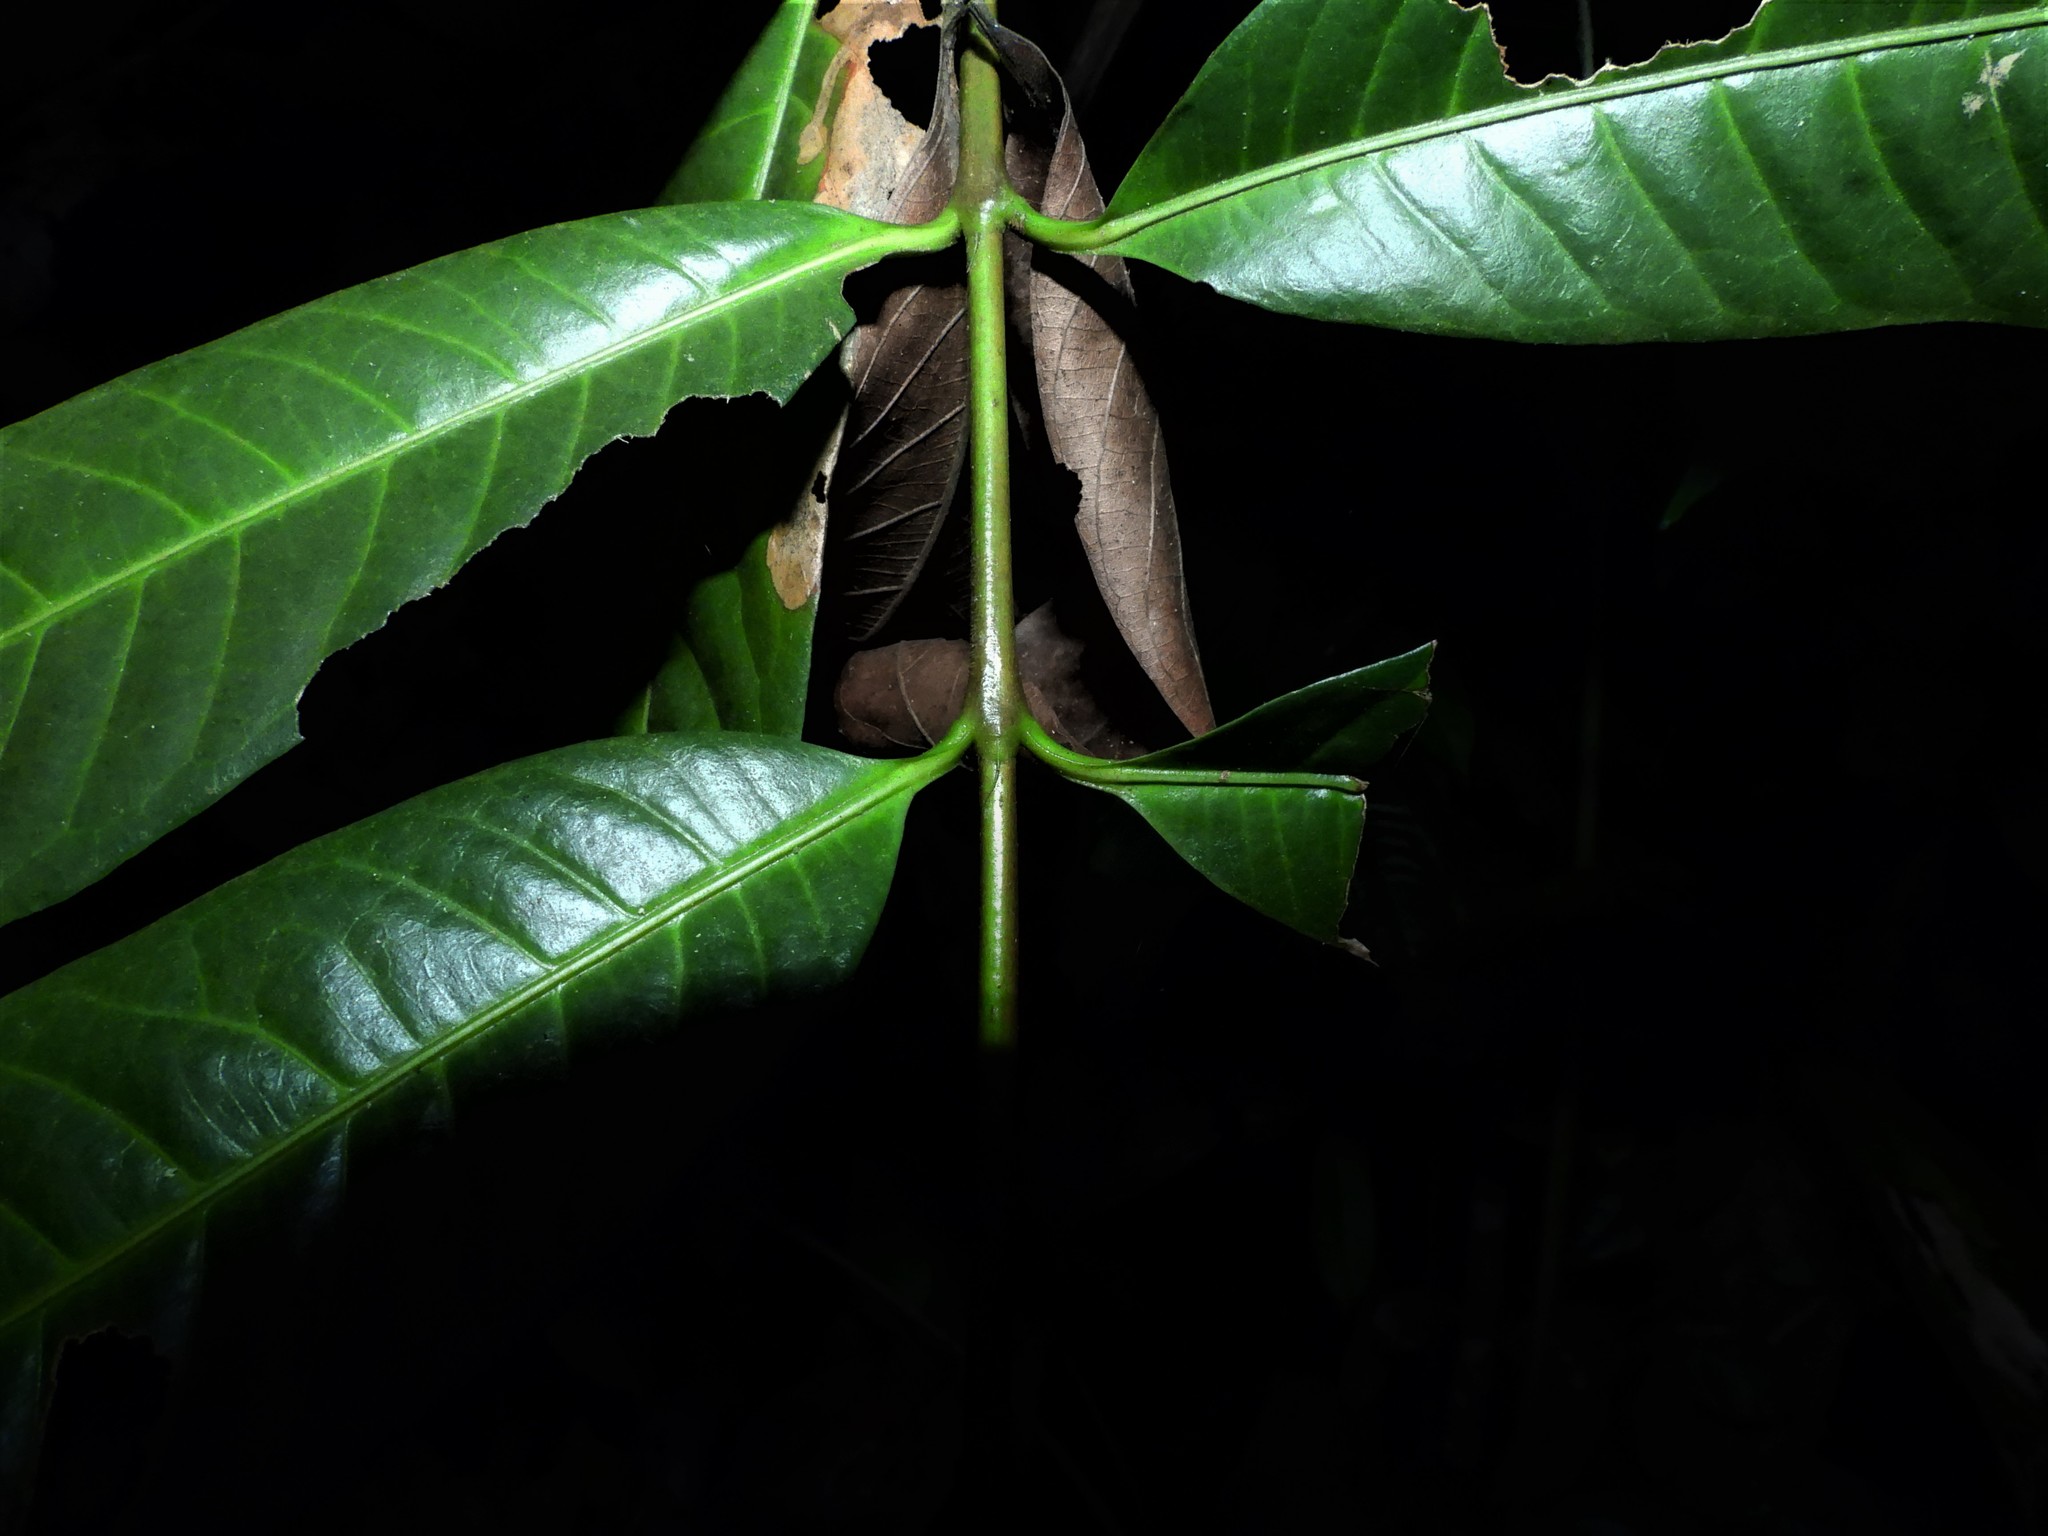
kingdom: Plantae
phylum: Tracheophyta
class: Magnoliopsida
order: Gentianales
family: Rubiaceae
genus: Ixora
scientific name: Ixora lobbii
